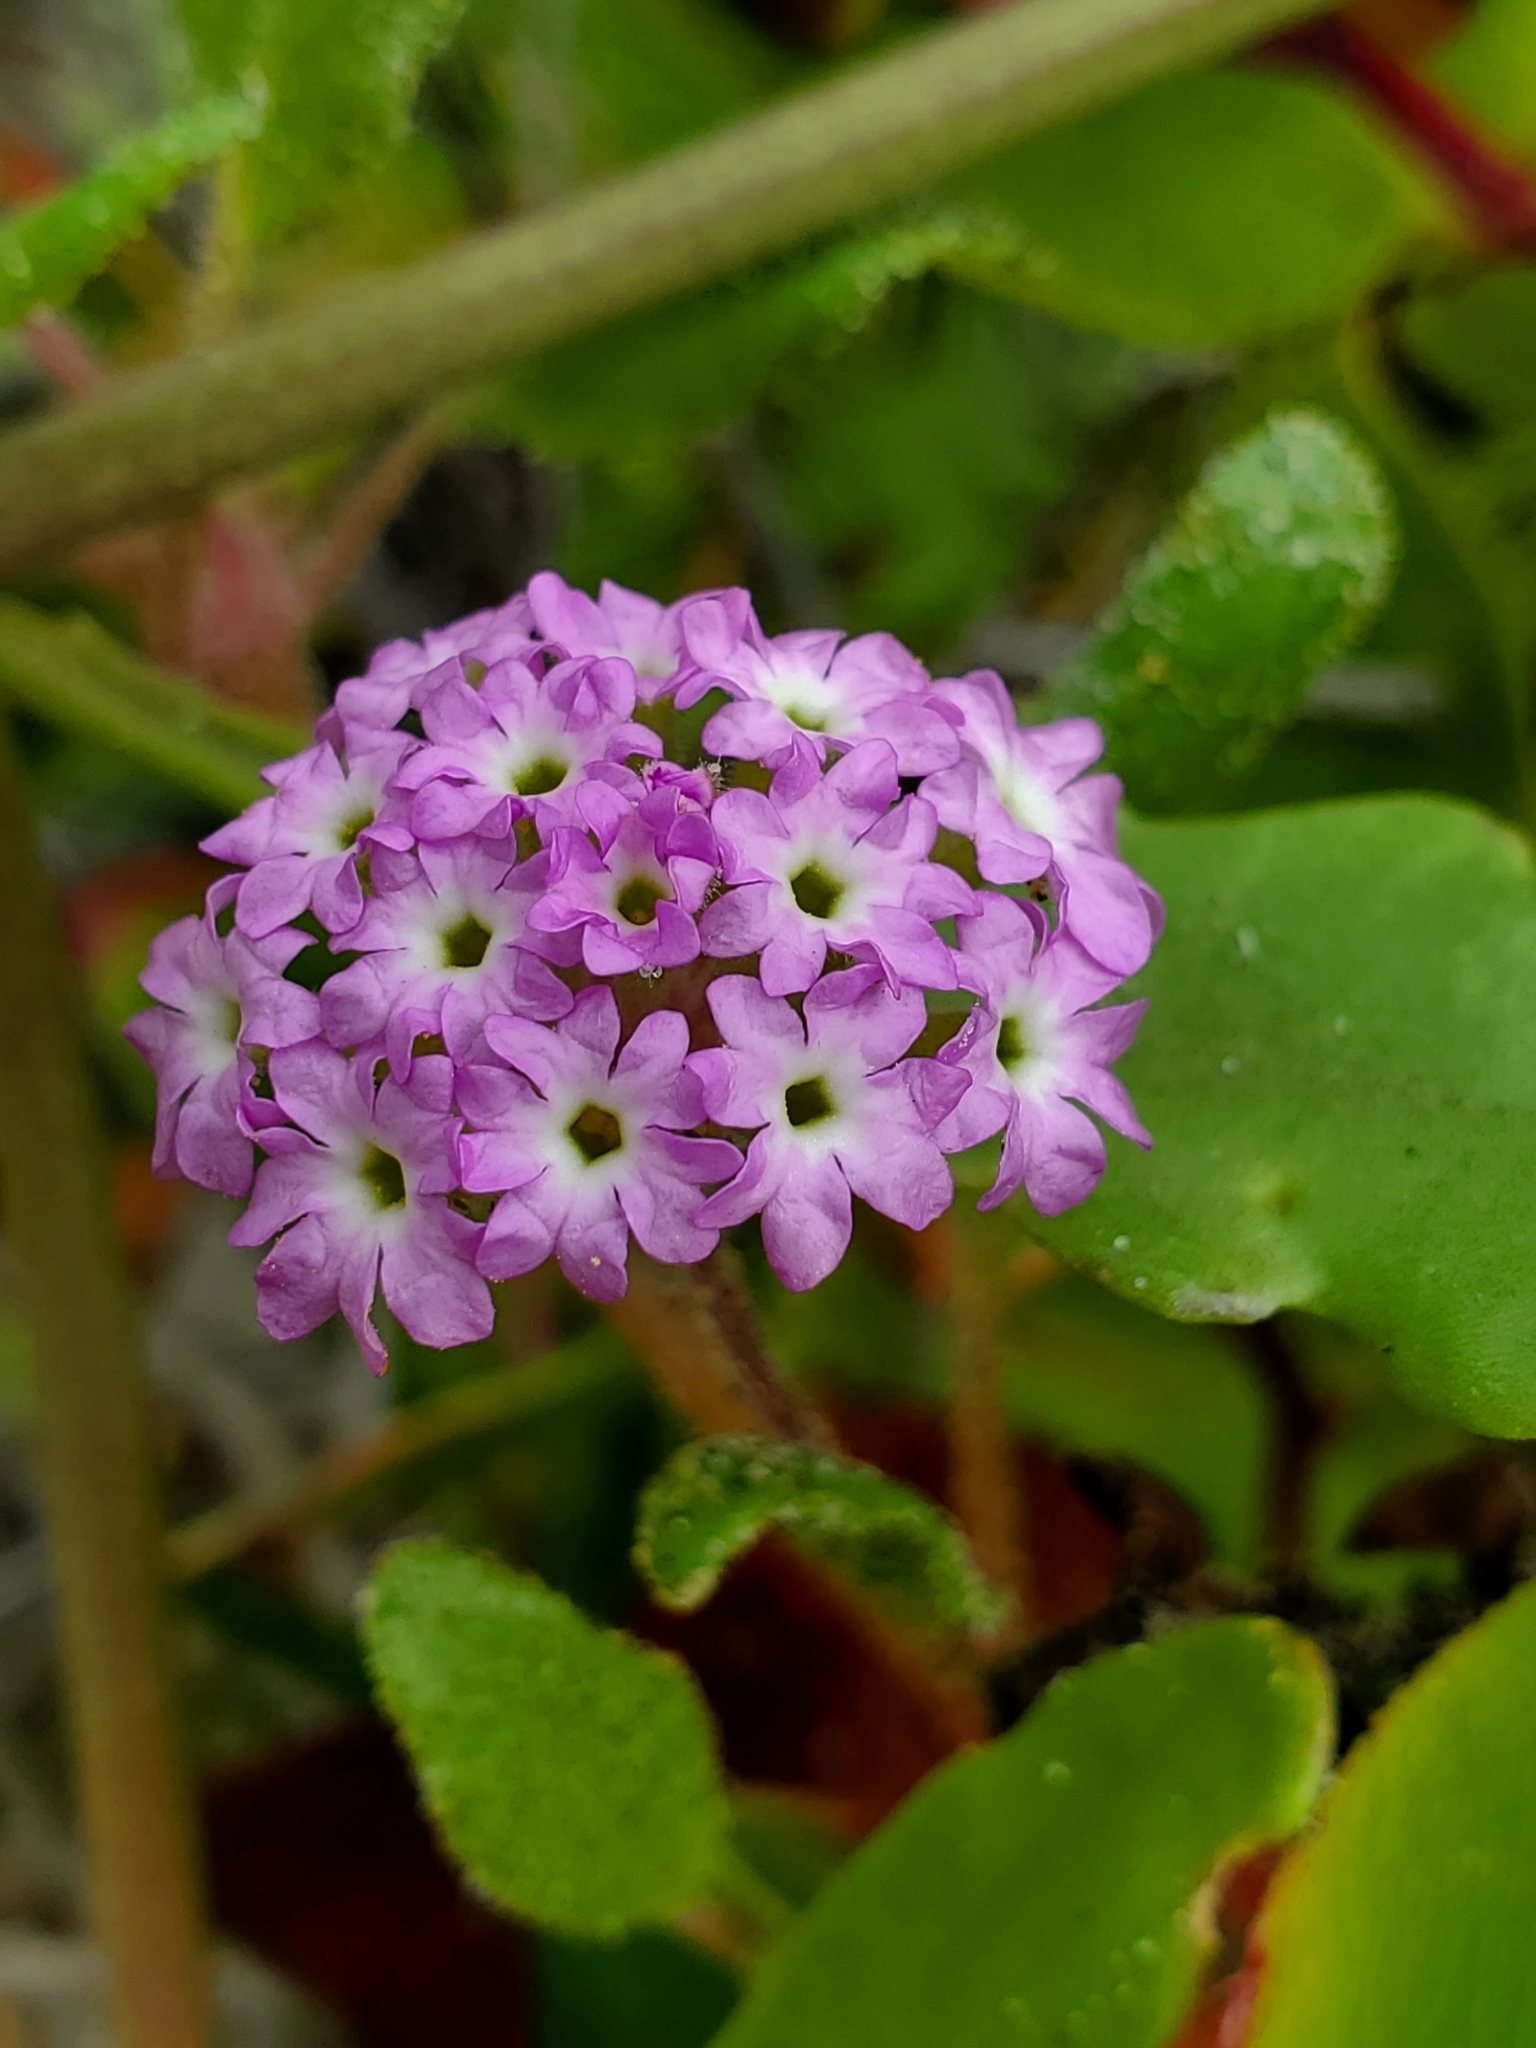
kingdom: Plantae
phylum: Tracheophyta
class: Magnoliopsida
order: Caryophyllales
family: Nyctaginaceae
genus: Abronia
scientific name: Abronia umbellata
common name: Sand-verbena
